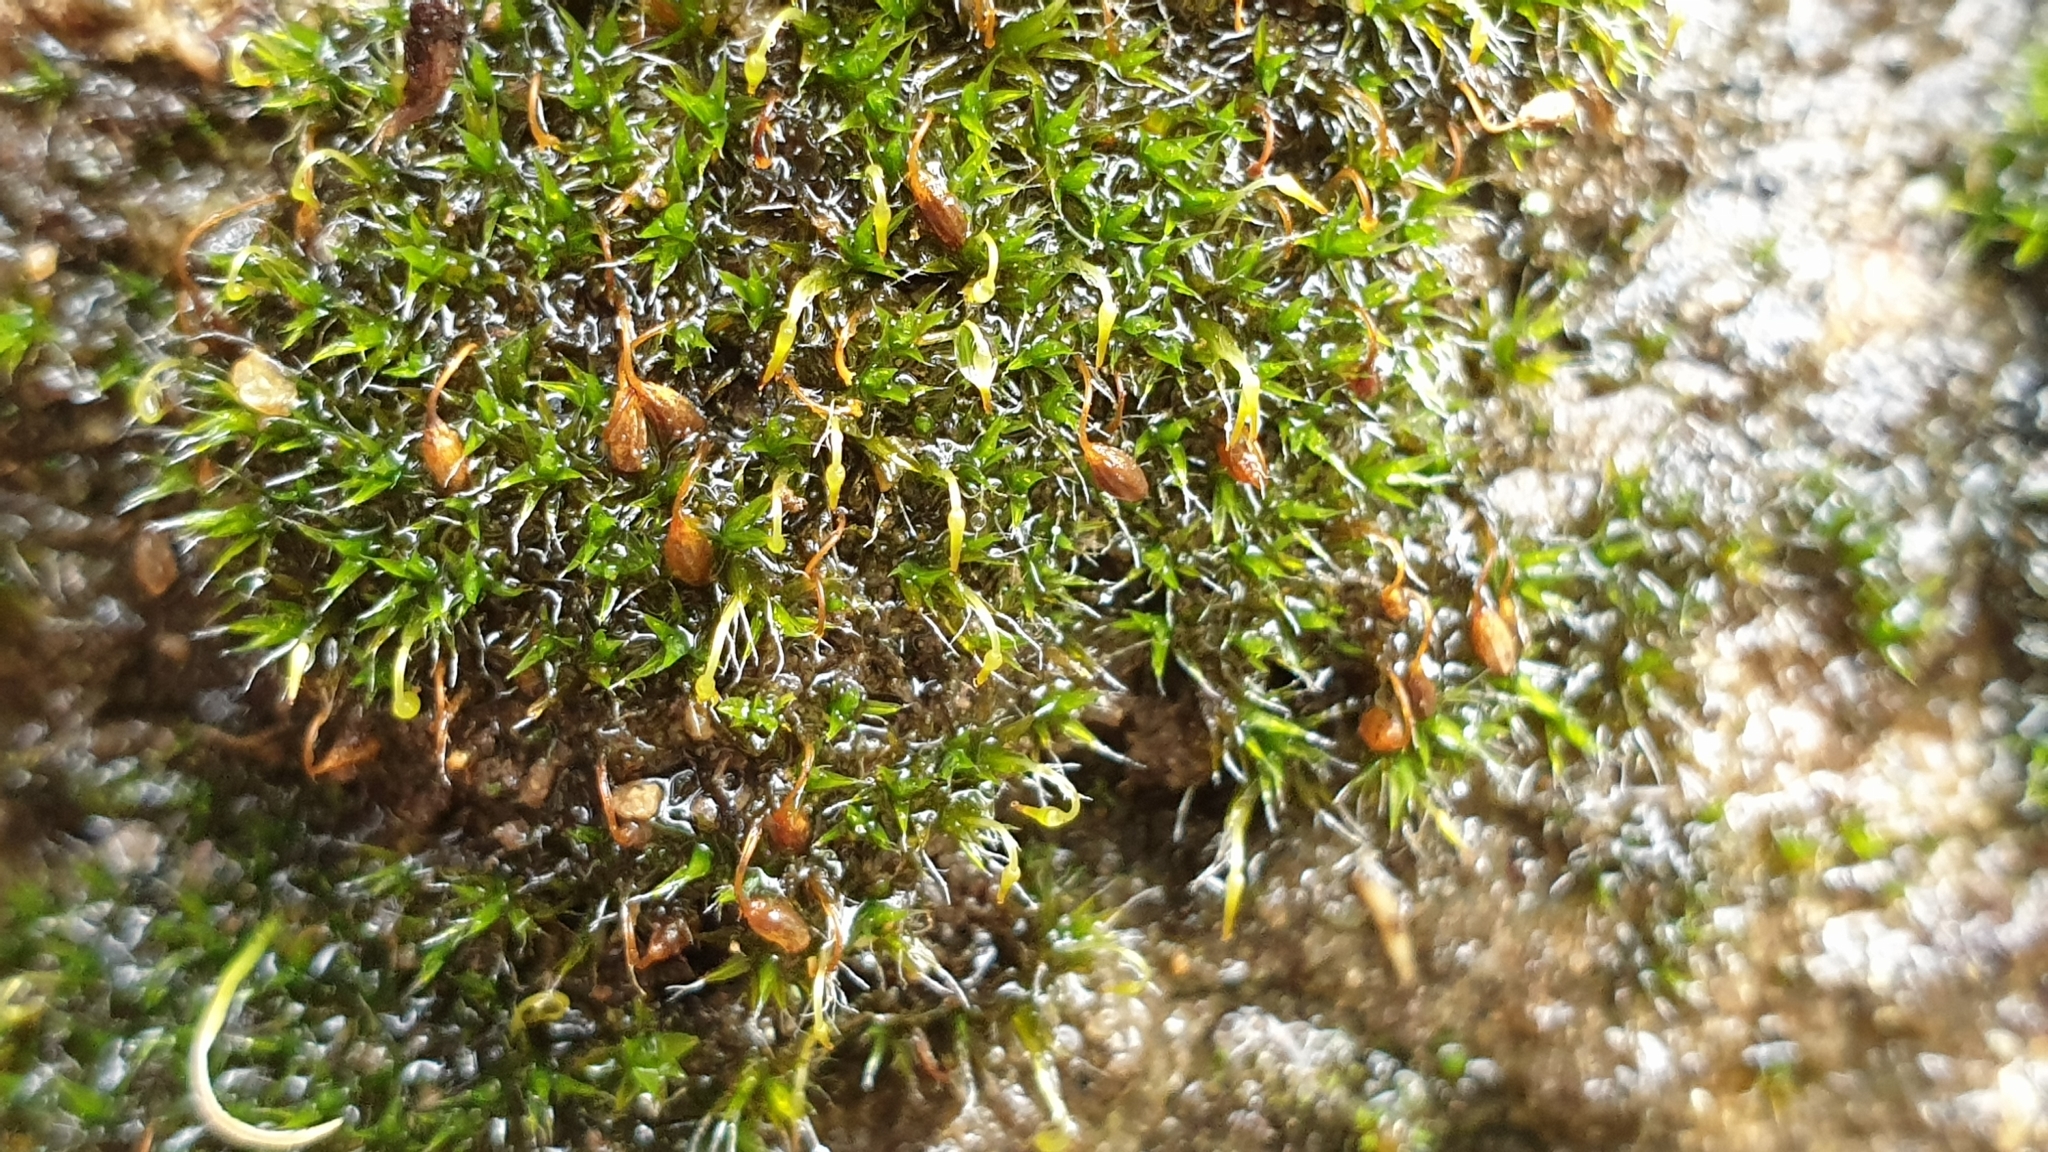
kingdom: Plantae
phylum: Bryophyta
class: Bryopsida
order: Grimmiales
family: Grimmiaceae
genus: Grimmia
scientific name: Grimmia pulvinata
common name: Grey-cushioned grimmia
